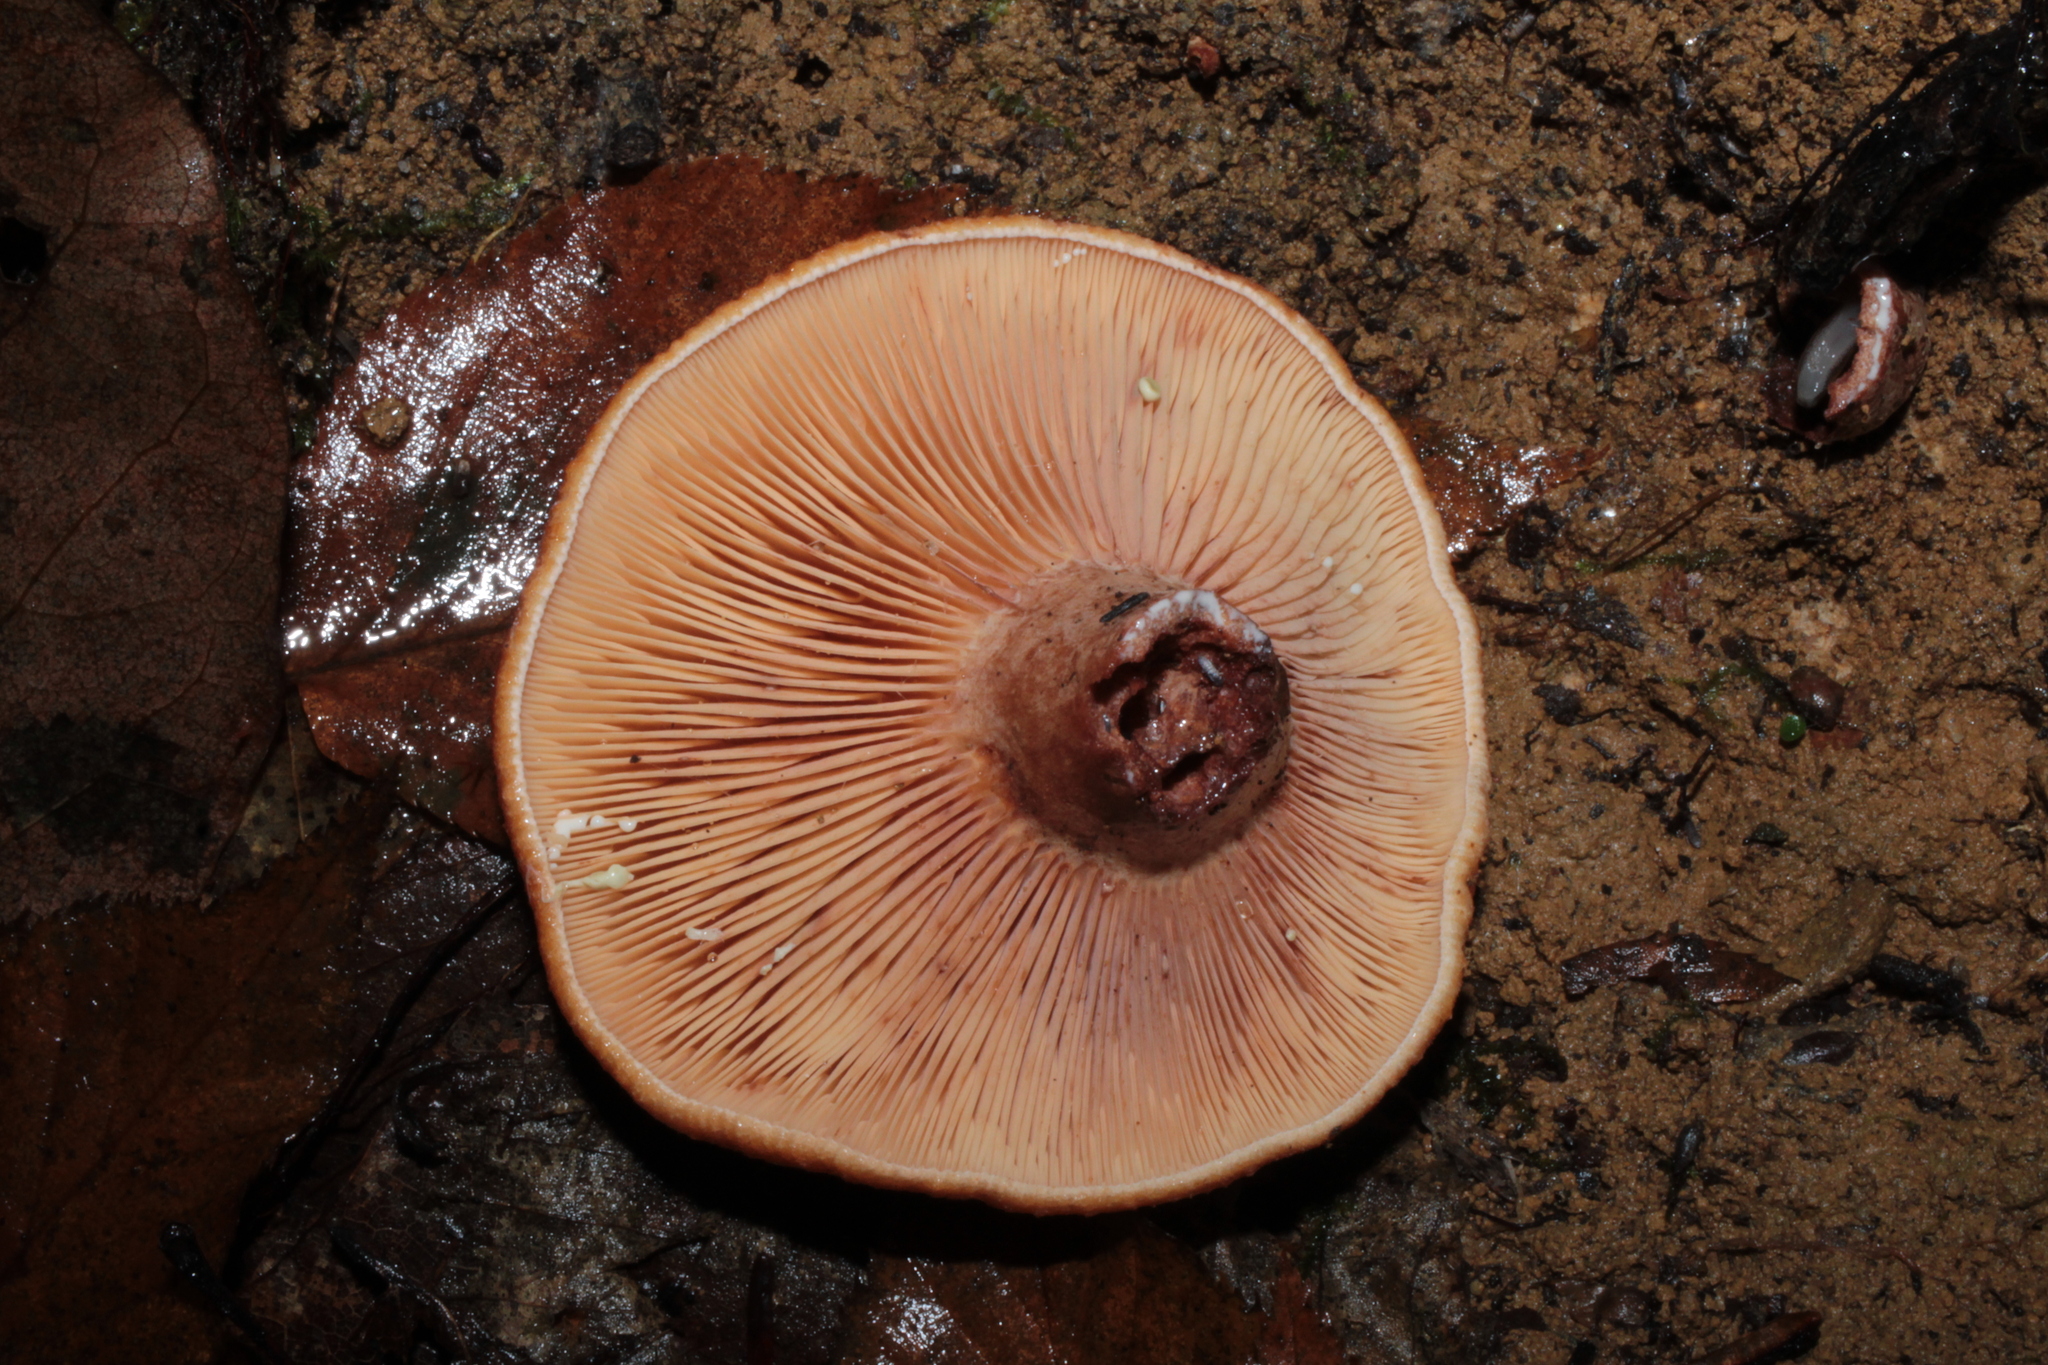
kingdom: Fungi
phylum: Basidiomycota
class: Agaricomycetes
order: Russulales
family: Russulaceae
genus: Lactarius
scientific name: Lactarius peckii
